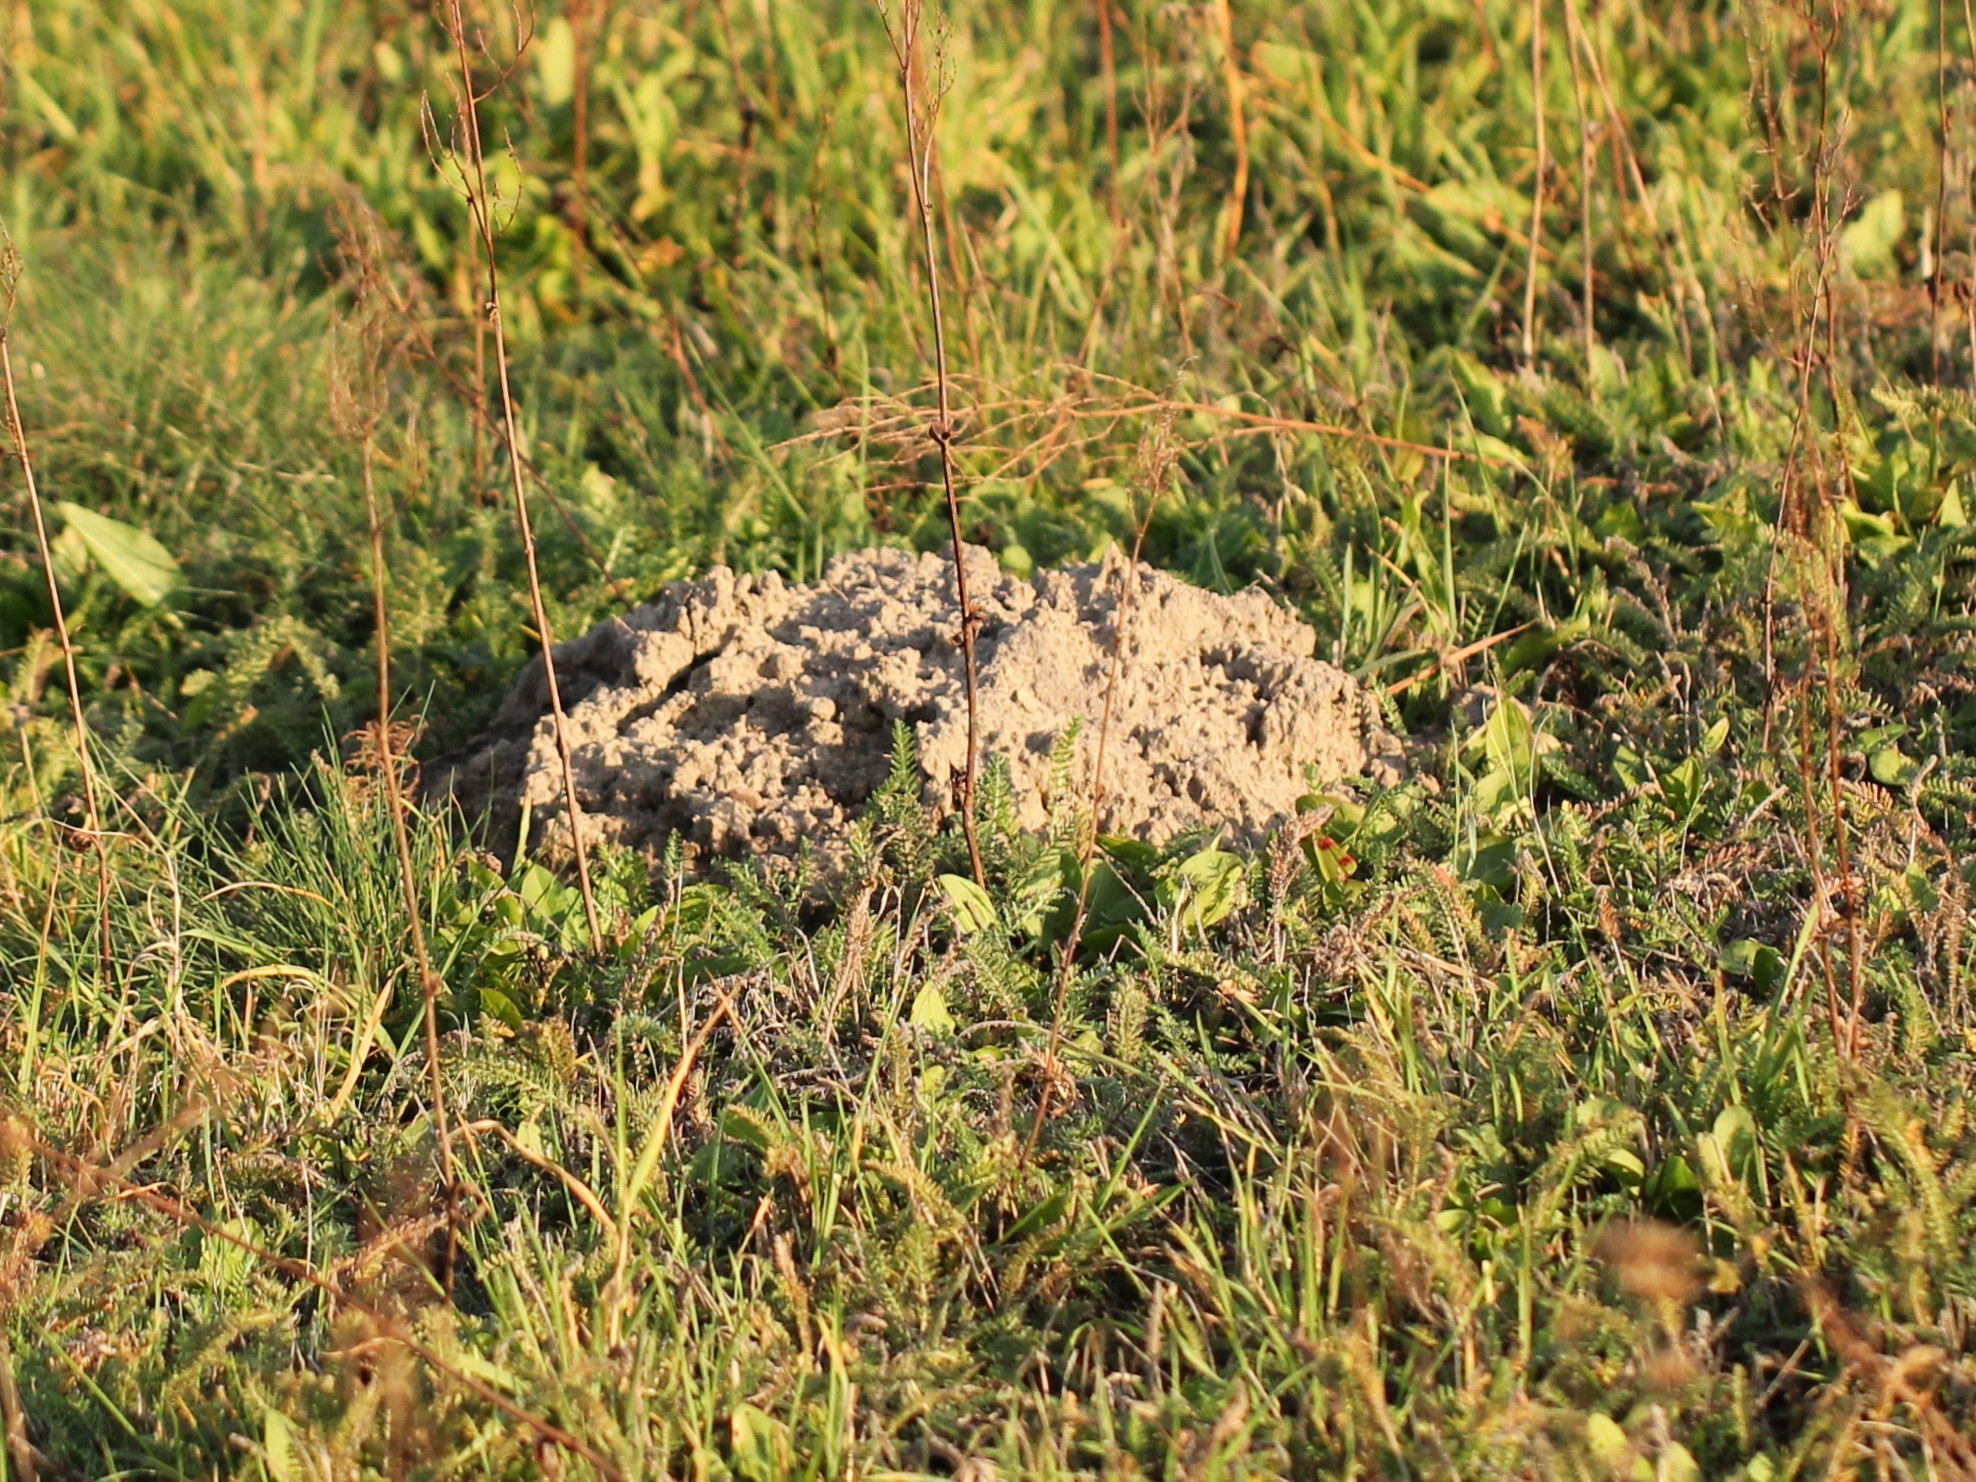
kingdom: Animalia
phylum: Chordata
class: Mammalia
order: Soricomorpha
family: Talpidae
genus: Talpa
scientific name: Talpa europaea
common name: European mole
